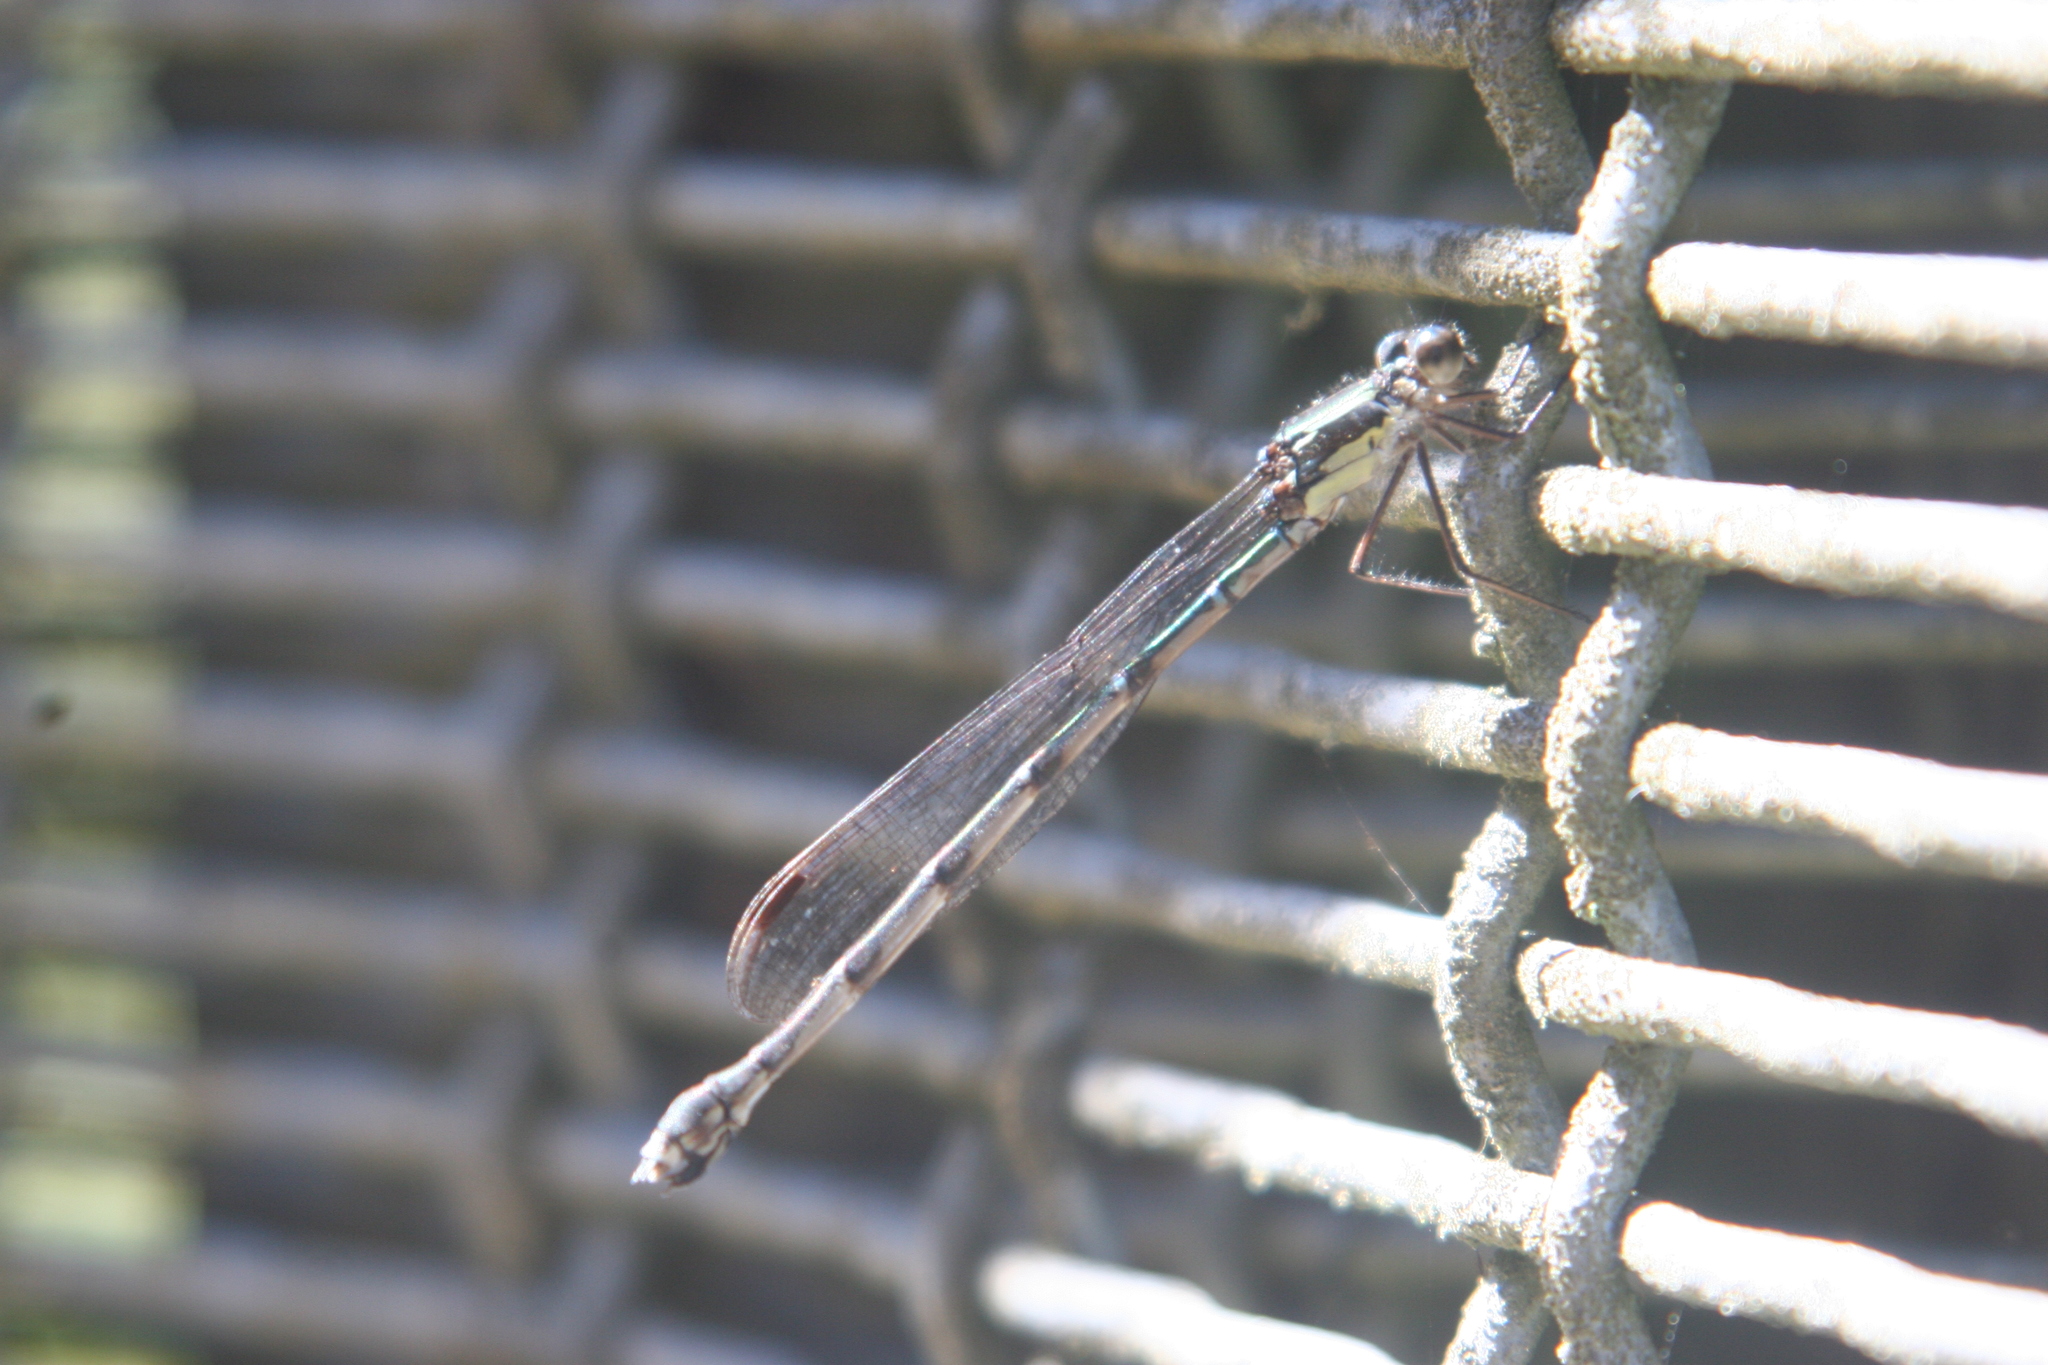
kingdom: Animalia
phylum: Arthropoda
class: Insecta
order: Odonata
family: Lestidae
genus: Austrolestes
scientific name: Austrolestes colensonis
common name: Blue damselfly
